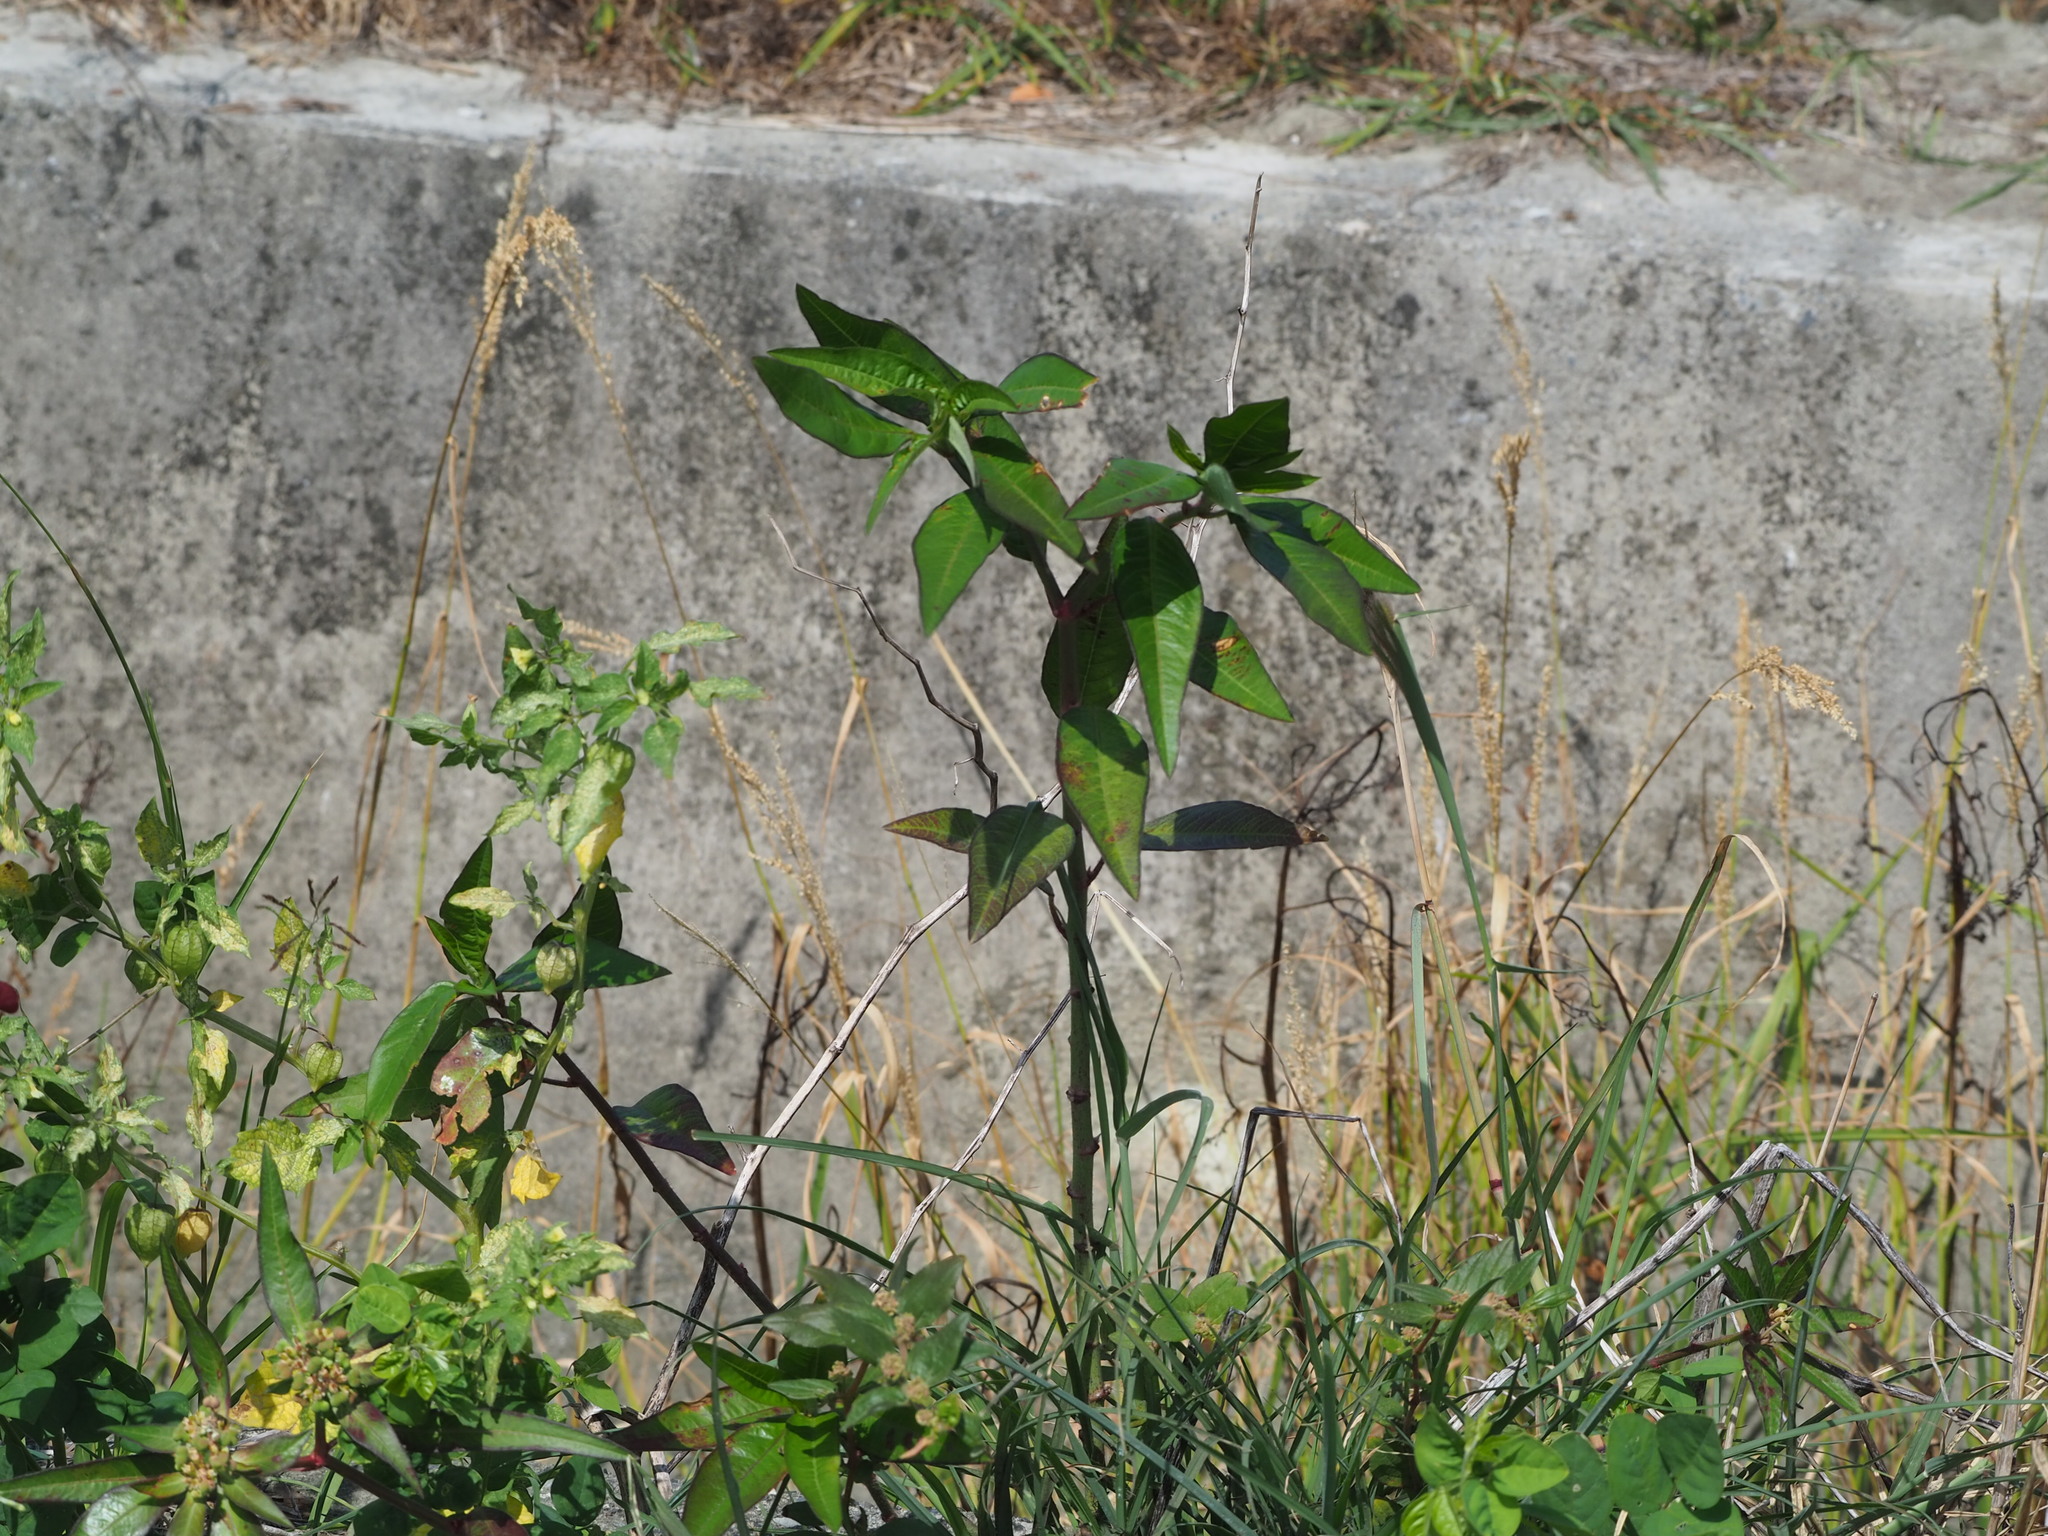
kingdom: Plantae
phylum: Tracheophyta
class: Magnoliopsida
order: Malpighiales
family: Euphorbiaceae
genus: Euphorbia
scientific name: Euphorbia heterophylla
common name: Mexican fireplant
